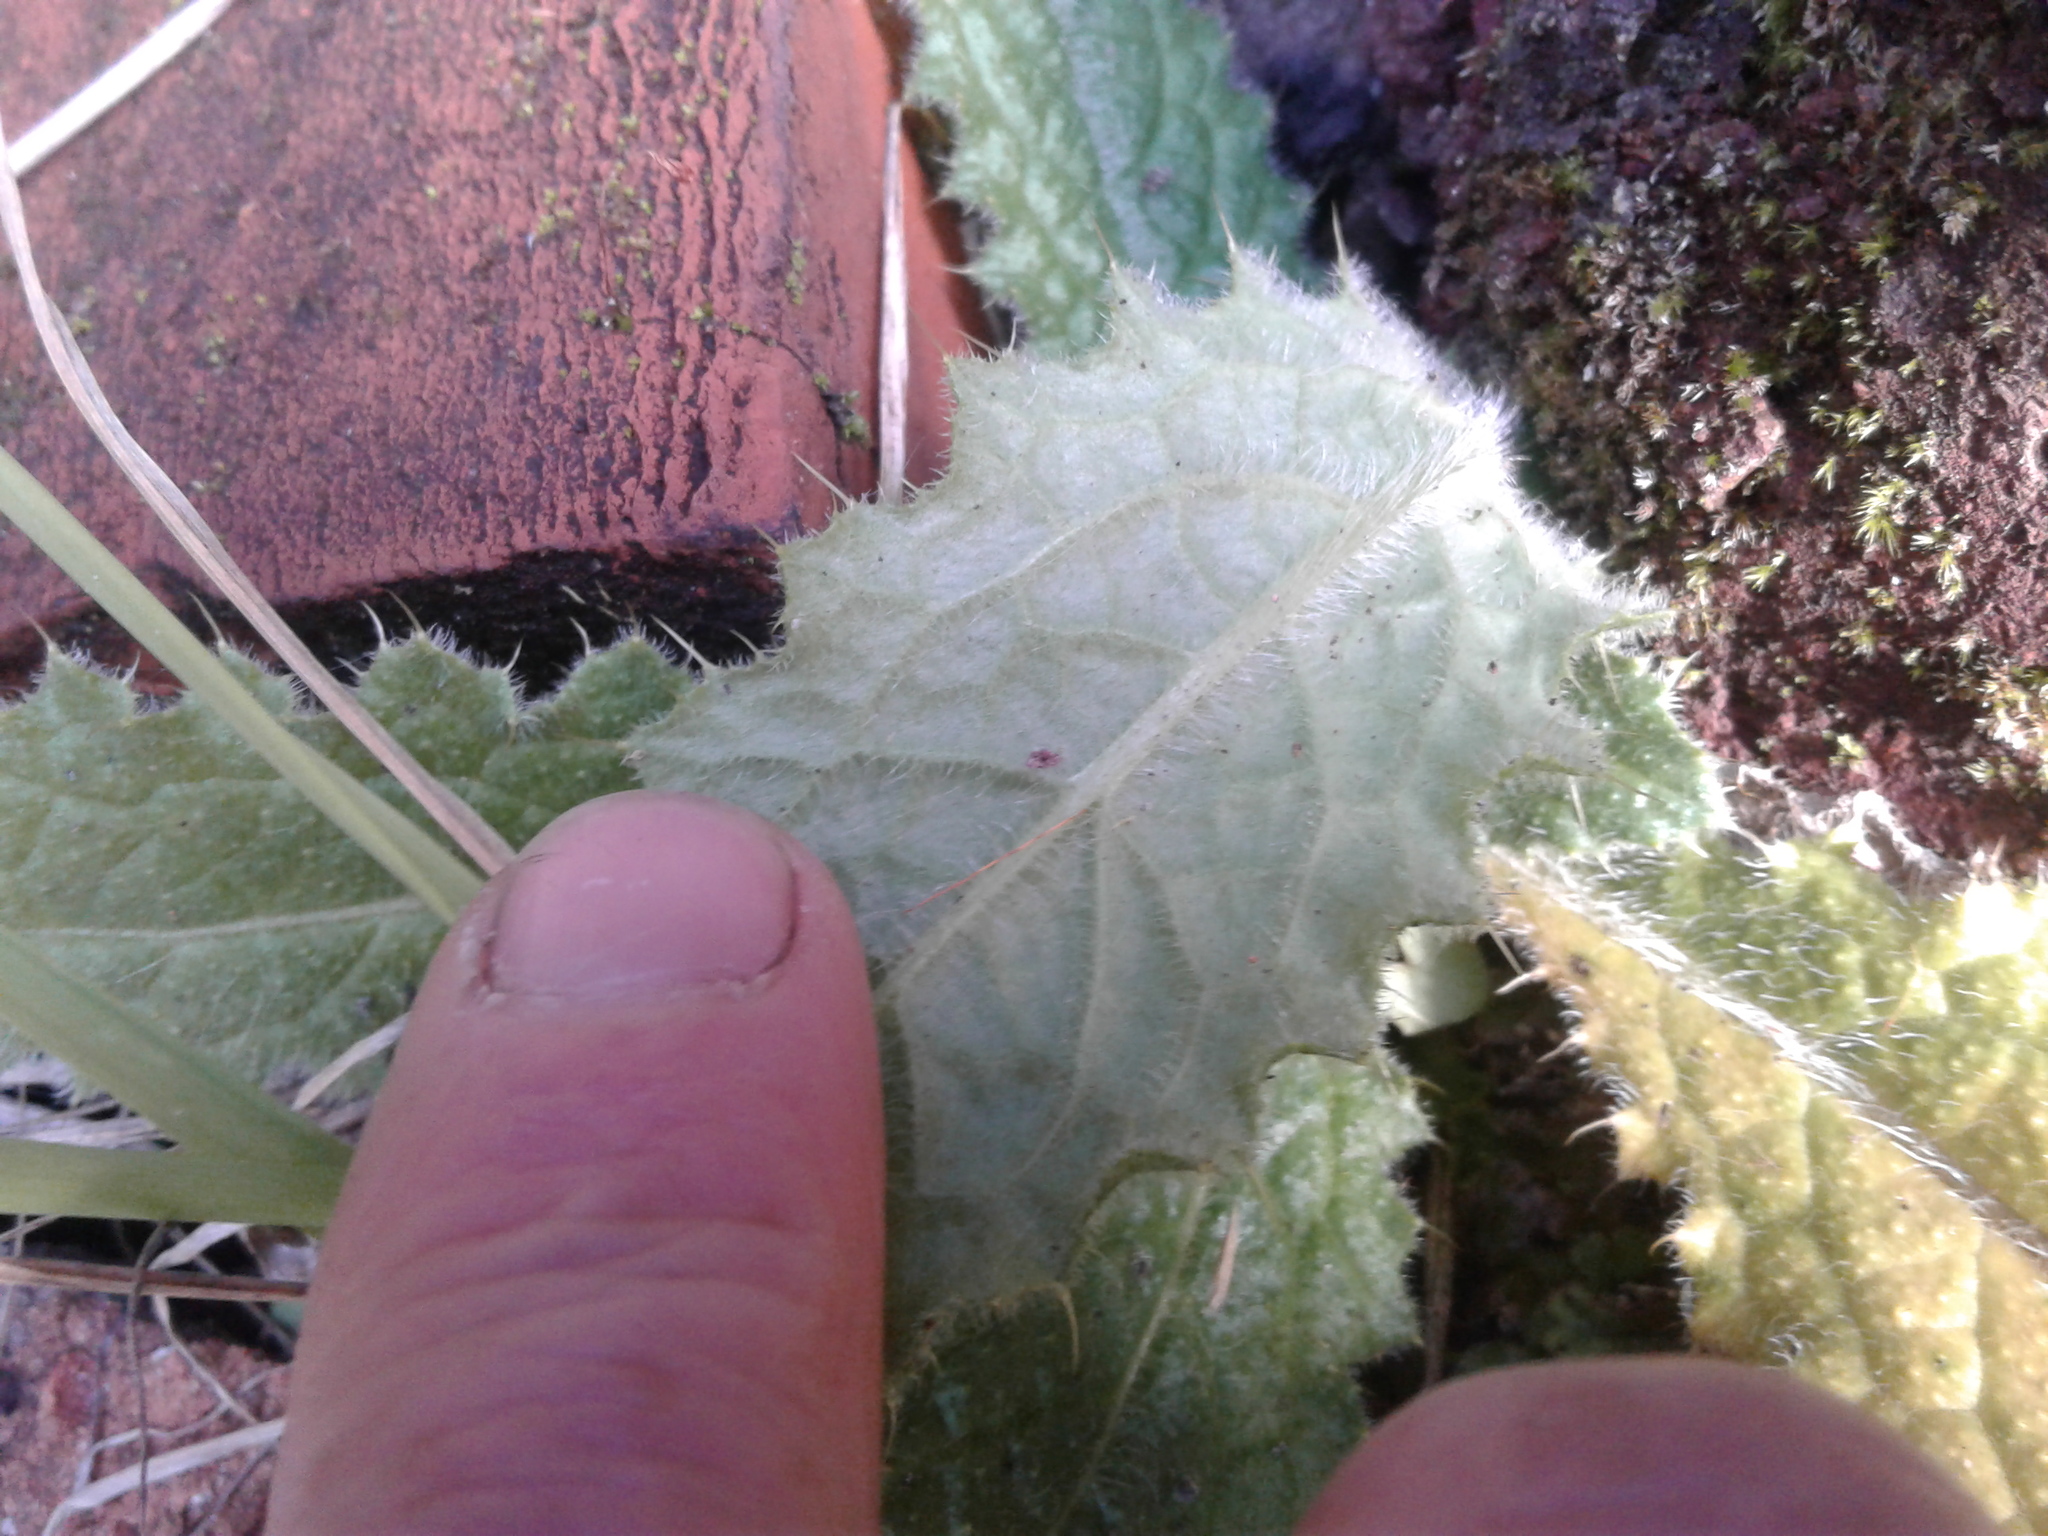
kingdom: Plantae
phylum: Tracheophyta
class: Magnoliopsida
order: Asterales
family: Asteraceae
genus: Cirsium
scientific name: Cirsium vulgare
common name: Bull thistle
